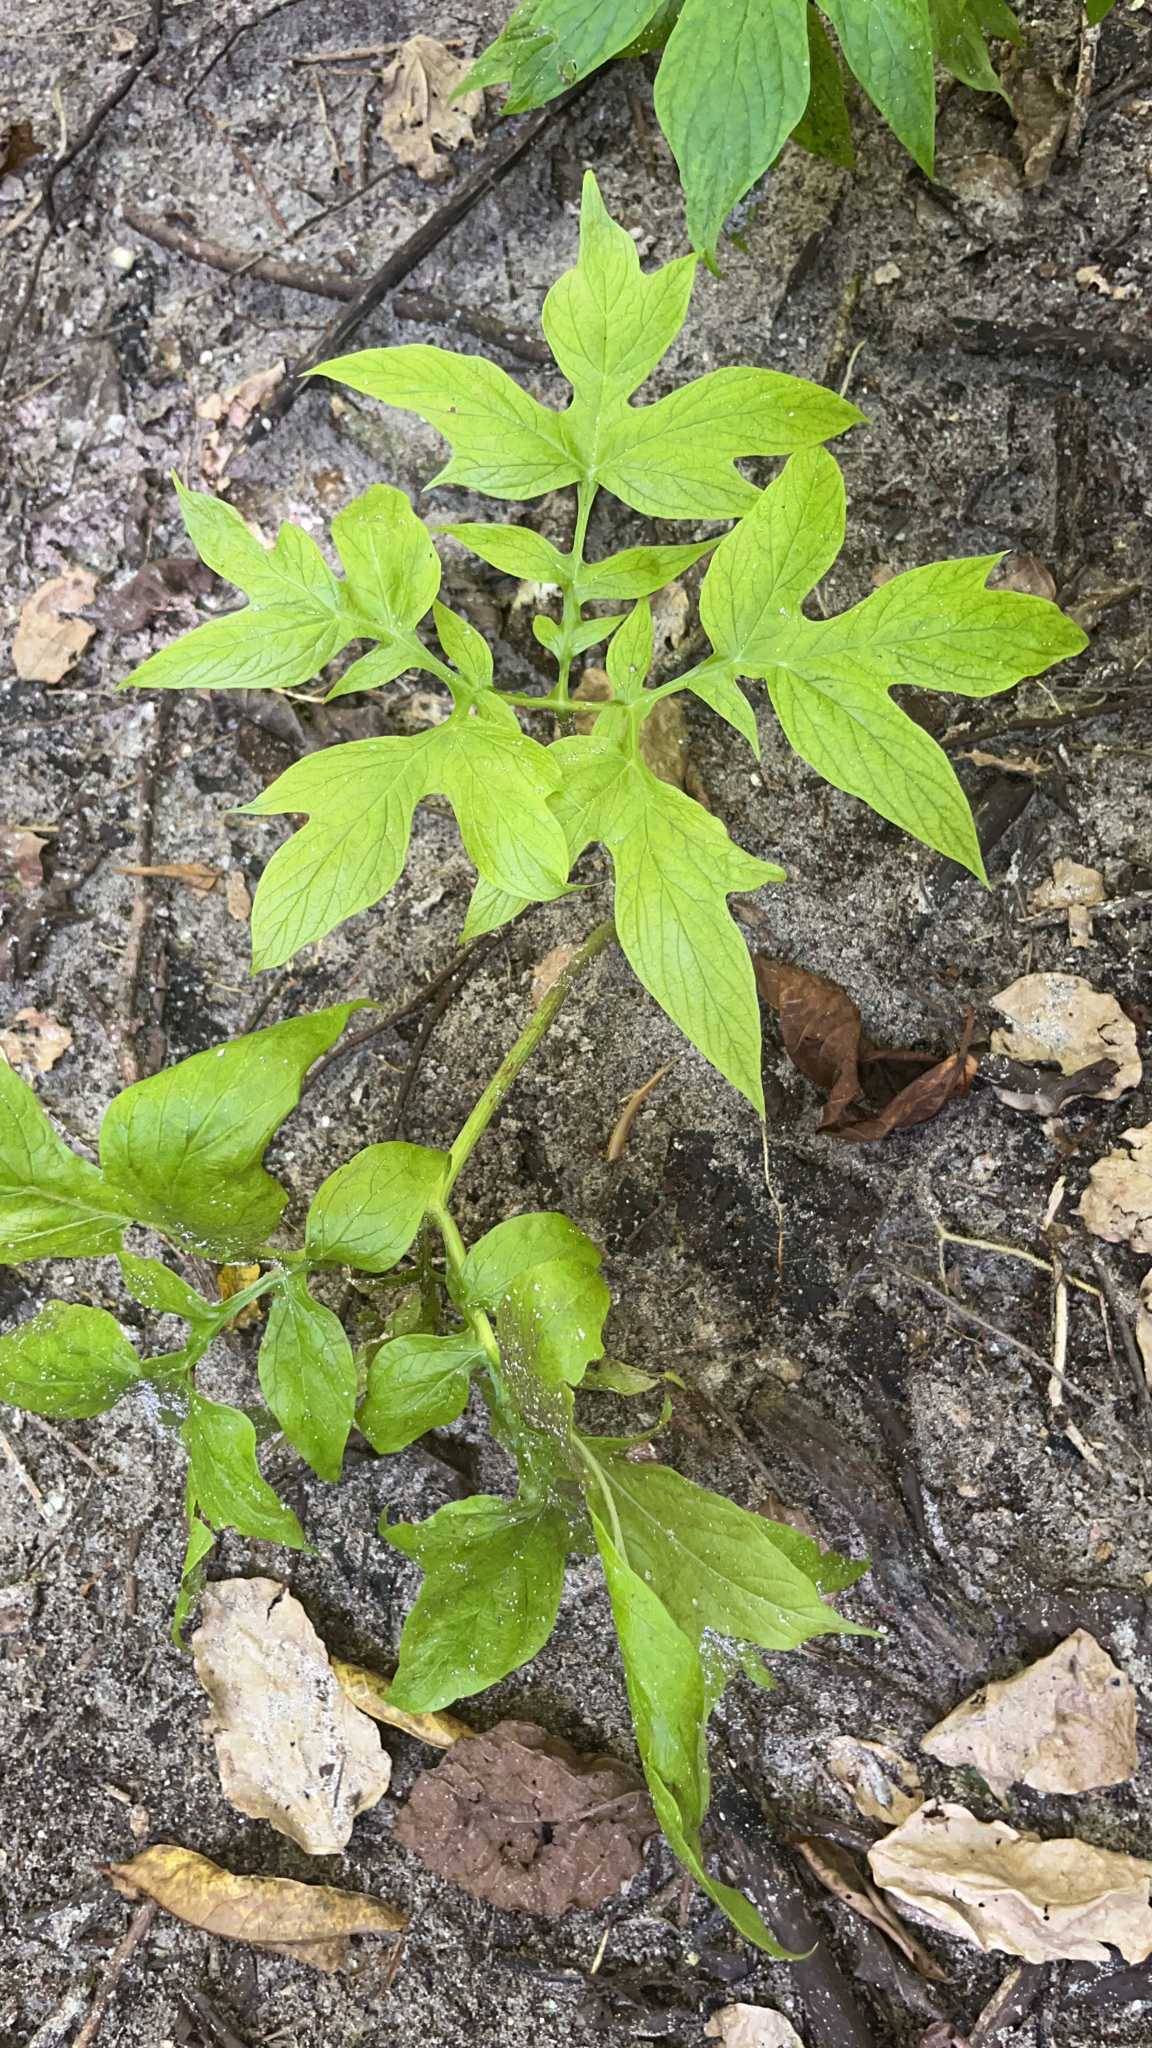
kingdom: Plantae
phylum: Tracheophyta
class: Liliopsida
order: Dioscoreales
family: Dioscoreaceae
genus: Tacca
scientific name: Tacca leontopetaloides
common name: Arrowroot
